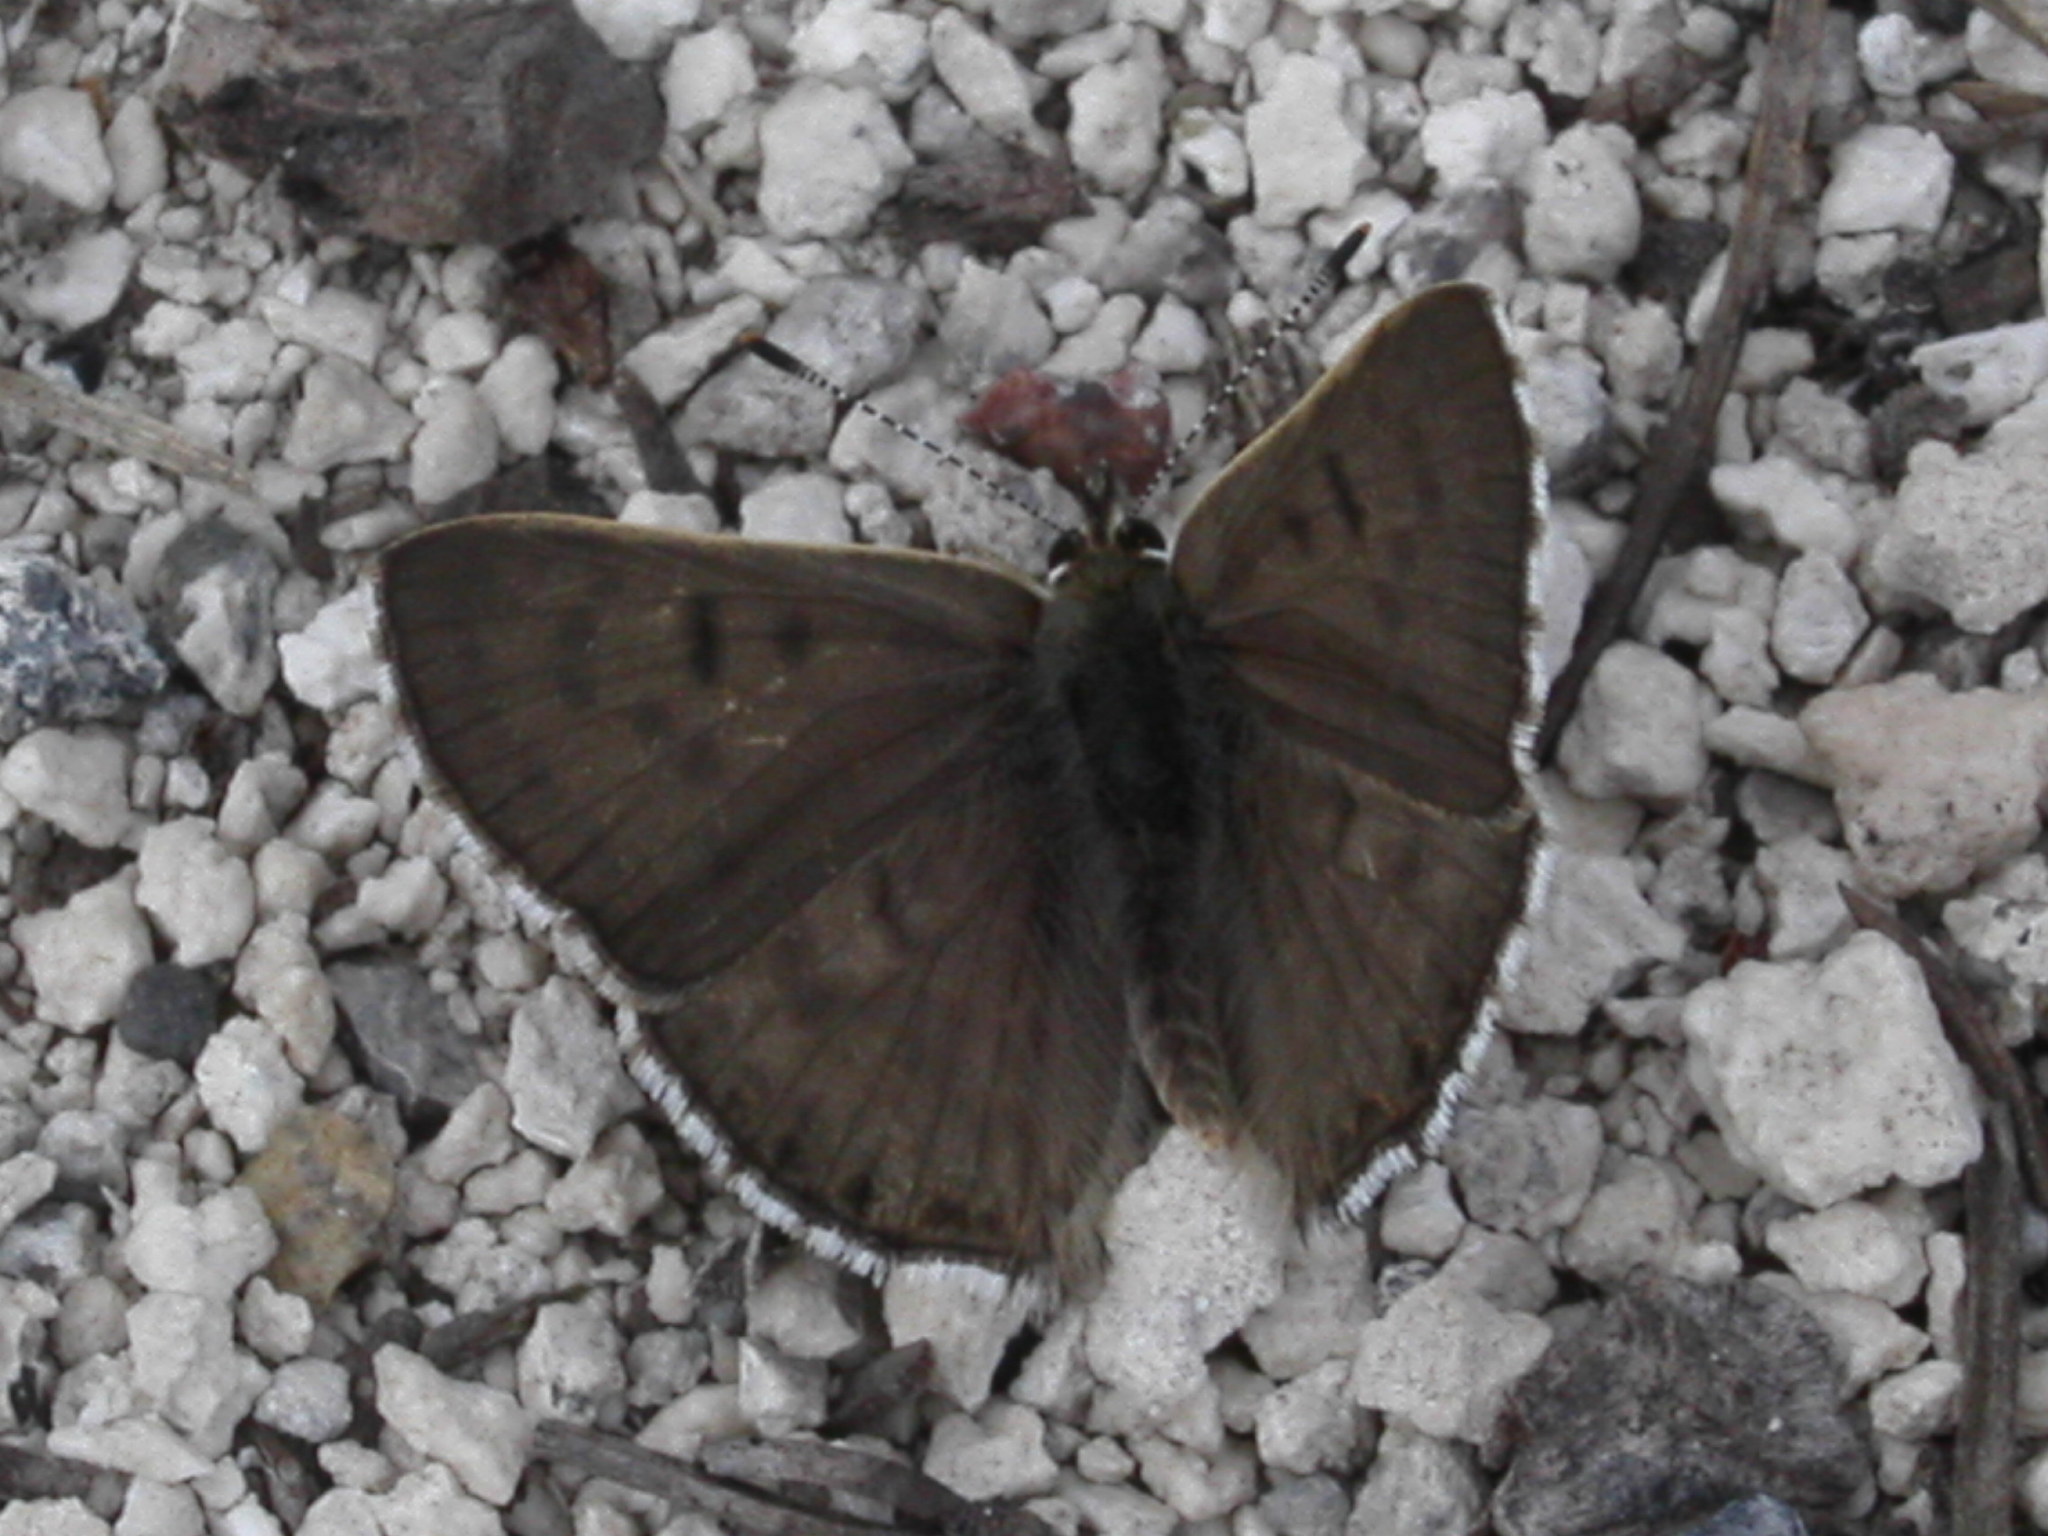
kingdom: Animalia
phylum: Arthropoda
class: Insecta
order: Lepidoptera
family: Lycaenidae
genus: Tharsalea
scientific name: Tharsalea editha
